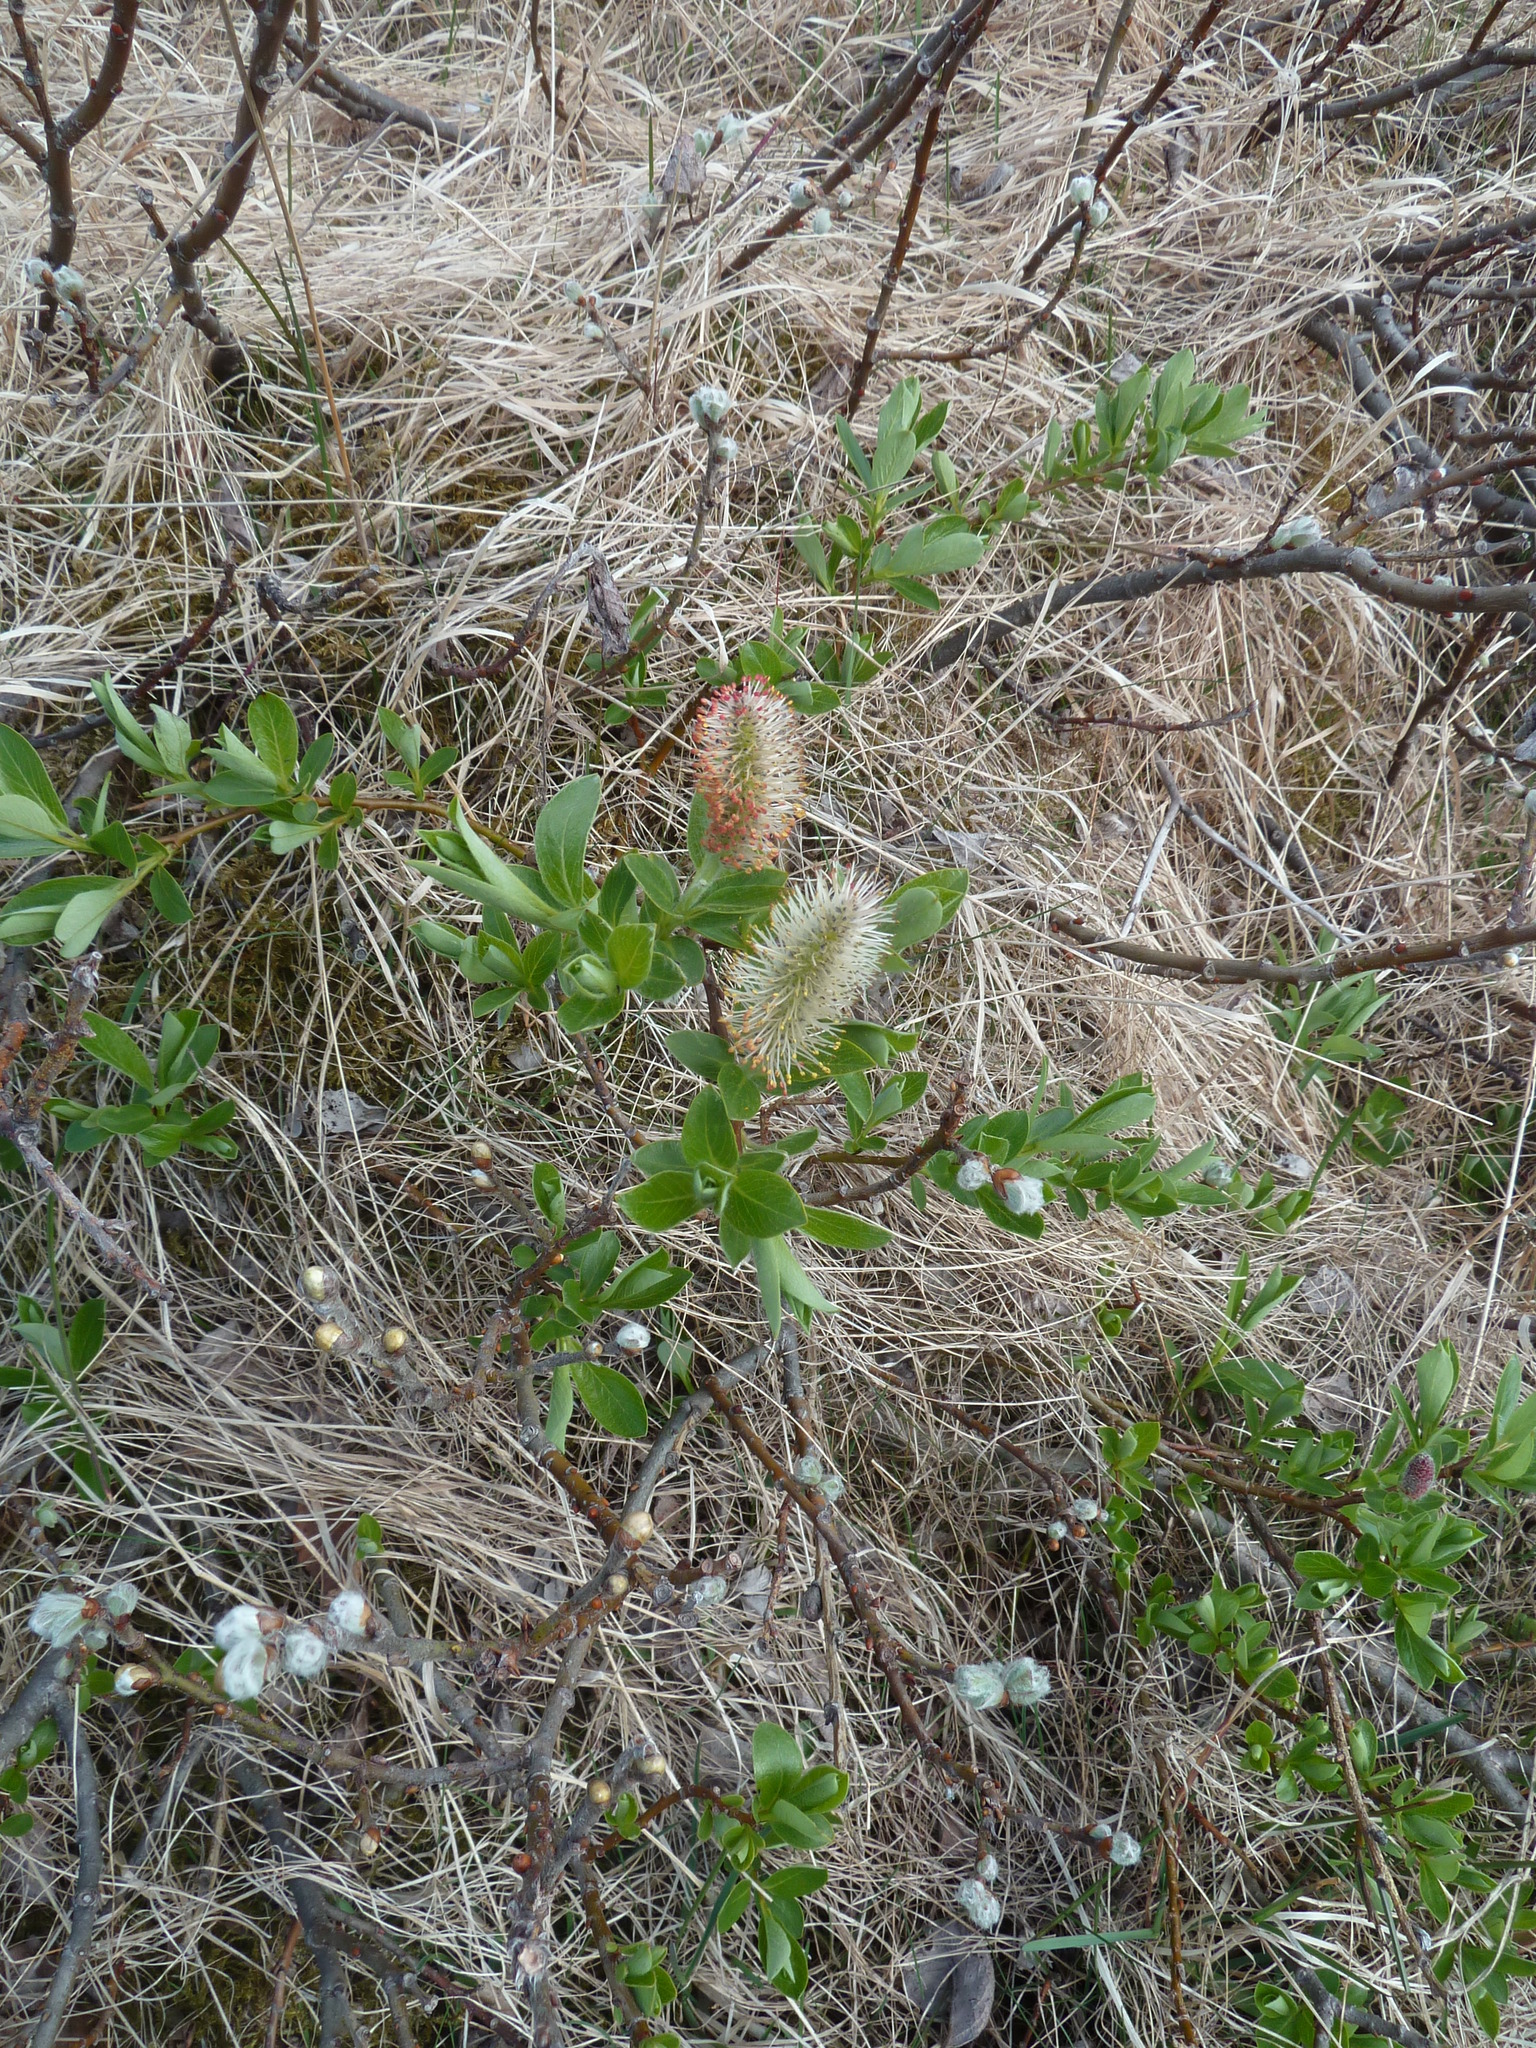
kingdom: Plantae
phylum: Tracheophyta
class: Magnoliopsida
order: Malpighiales
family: Salicaceae
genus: Salix
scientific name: Salix phylicifolia
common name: Tea-leaved willow
